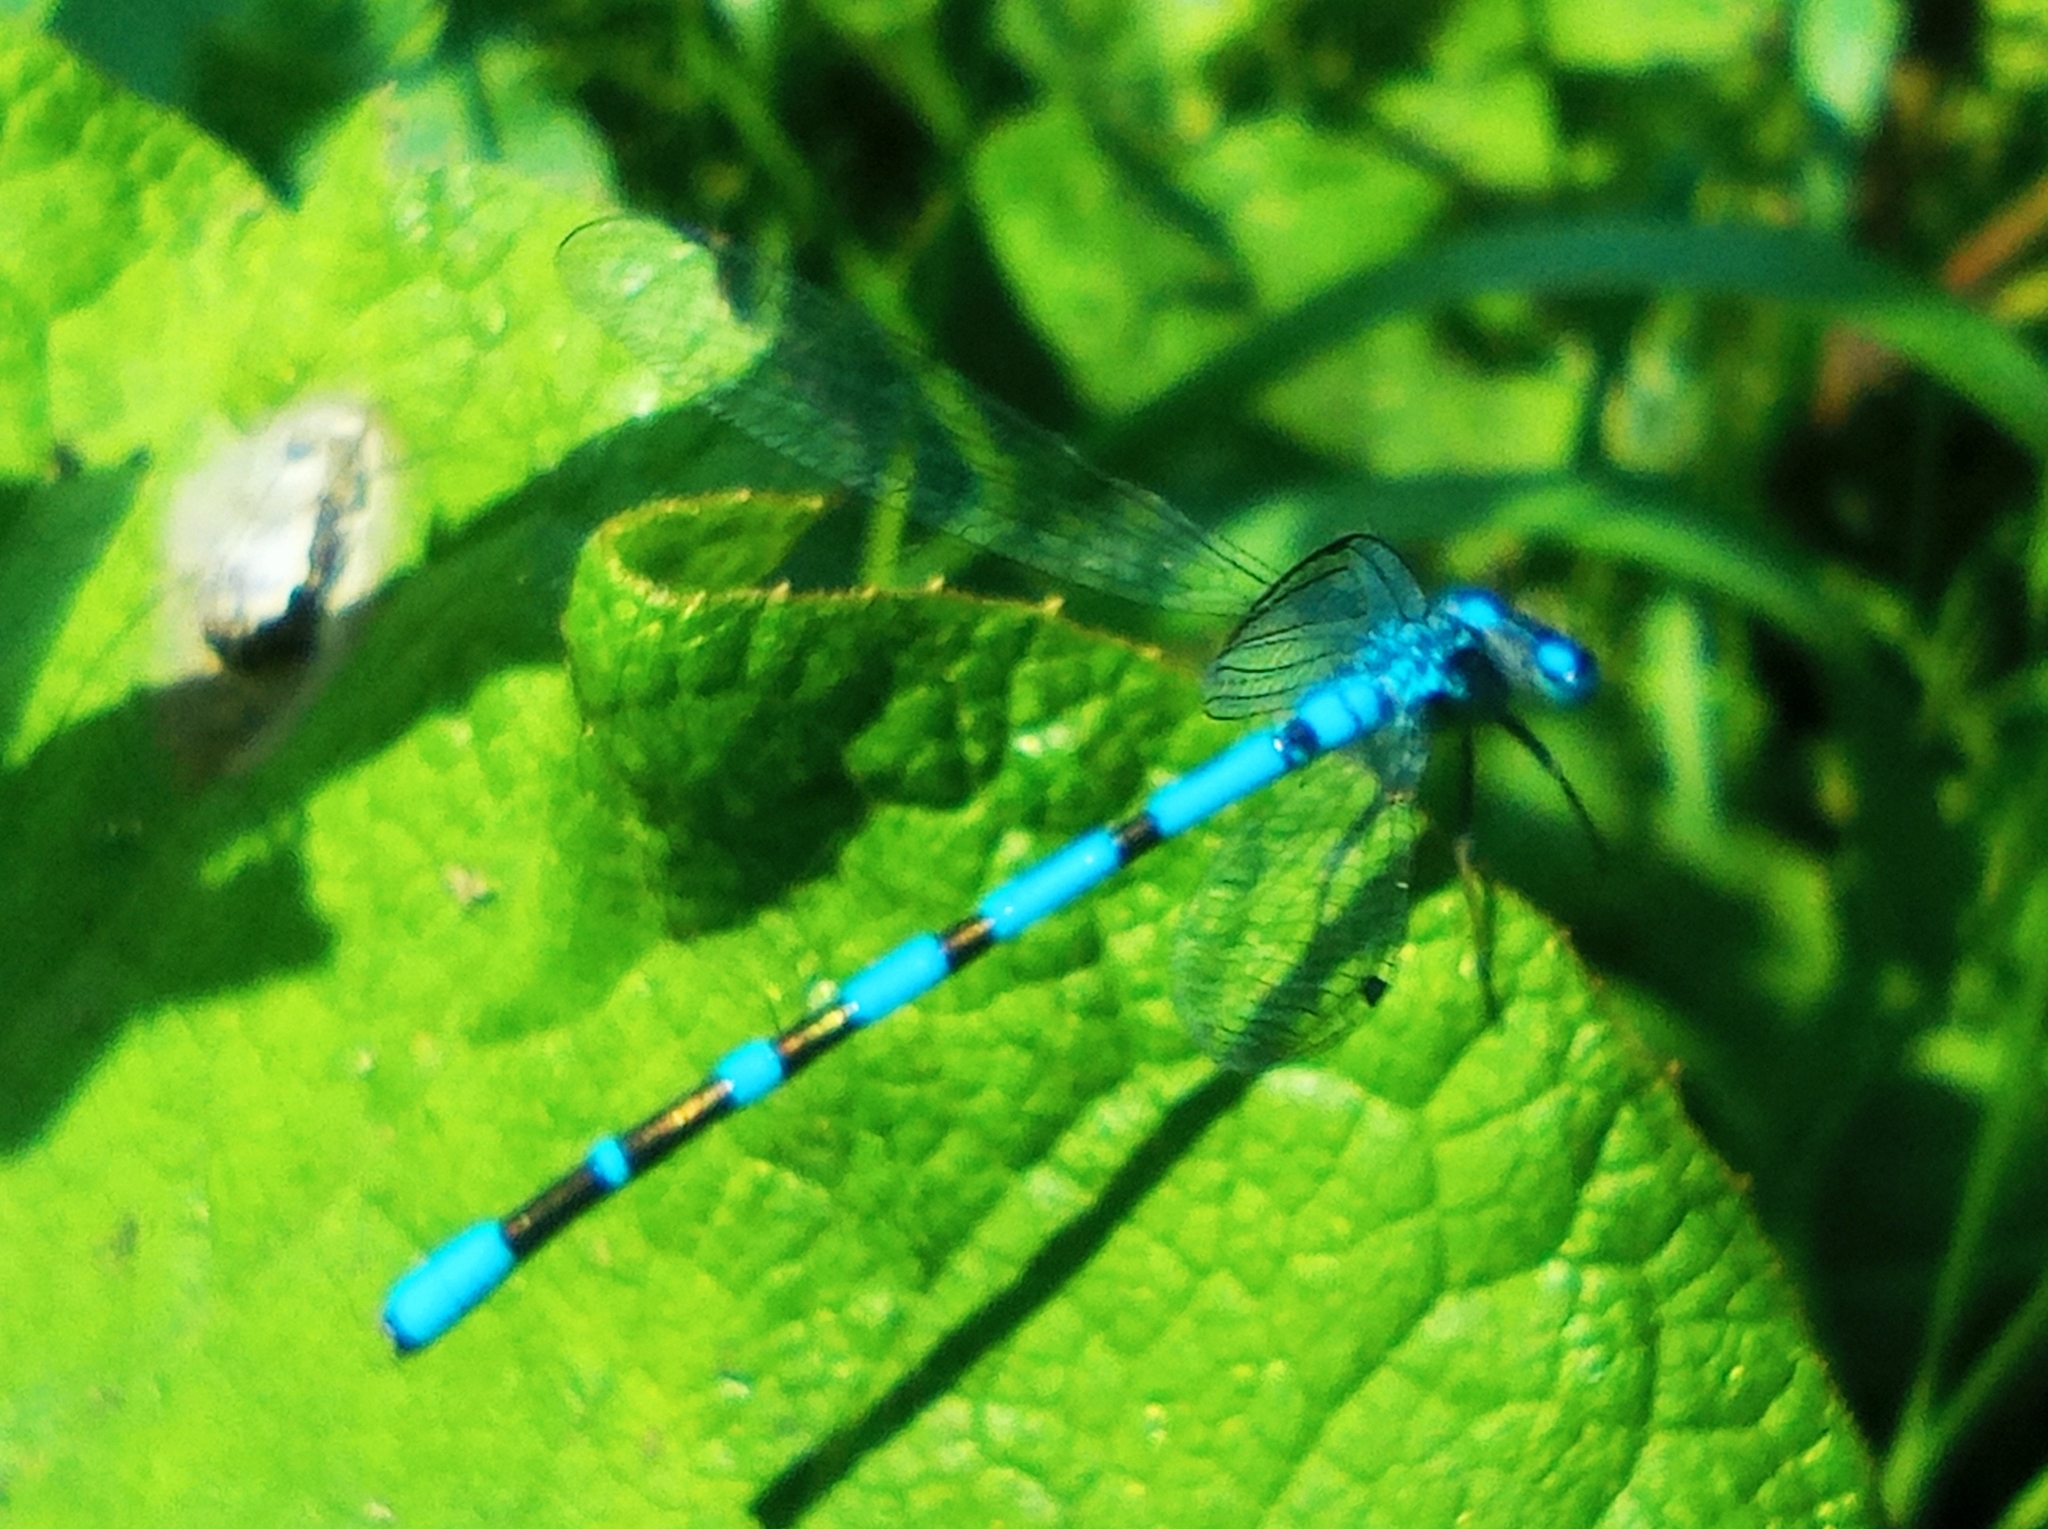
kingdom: Animalia
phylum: Arthropoda
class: Insecta
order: Odonata
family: Coenagrionidae
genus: Enallagma
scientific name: Enallagma cyathigerum
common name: Common blue damselfly
